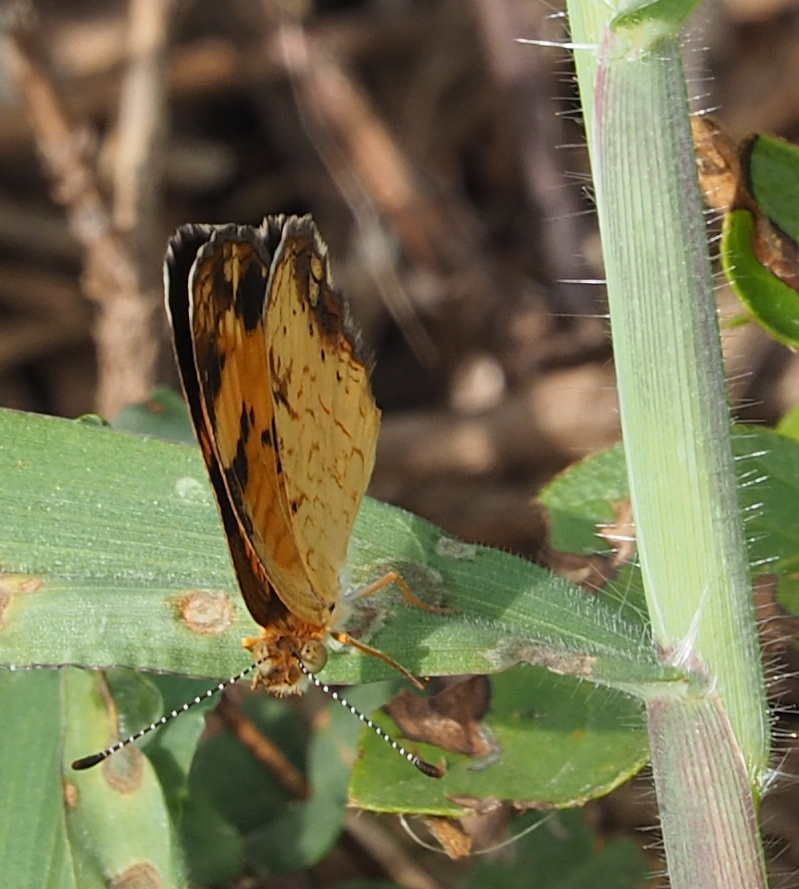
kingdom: Animalia
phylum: Arthropoda
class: Insecta
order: Lepidoptera
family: Nymphalidae
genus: Phyciodes
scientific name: Phyciodes tharos
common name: Pearl crescent
